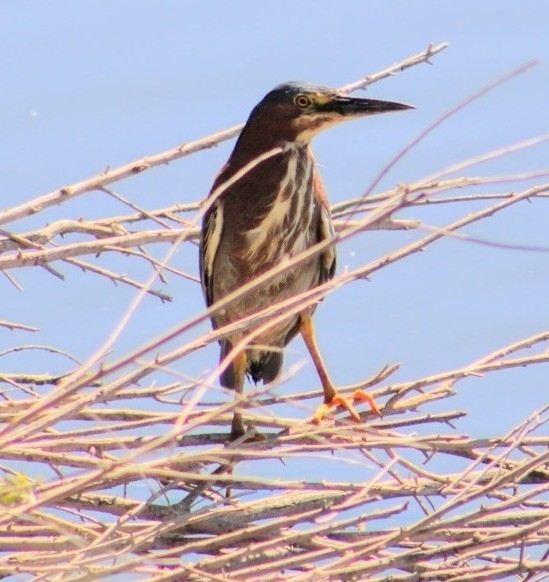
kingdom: Animalia
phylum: Chordata
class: Aves
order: Pelecaniformes
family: Ardeidae
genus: Butorides
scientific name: Butorides virescens
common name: Green heron
